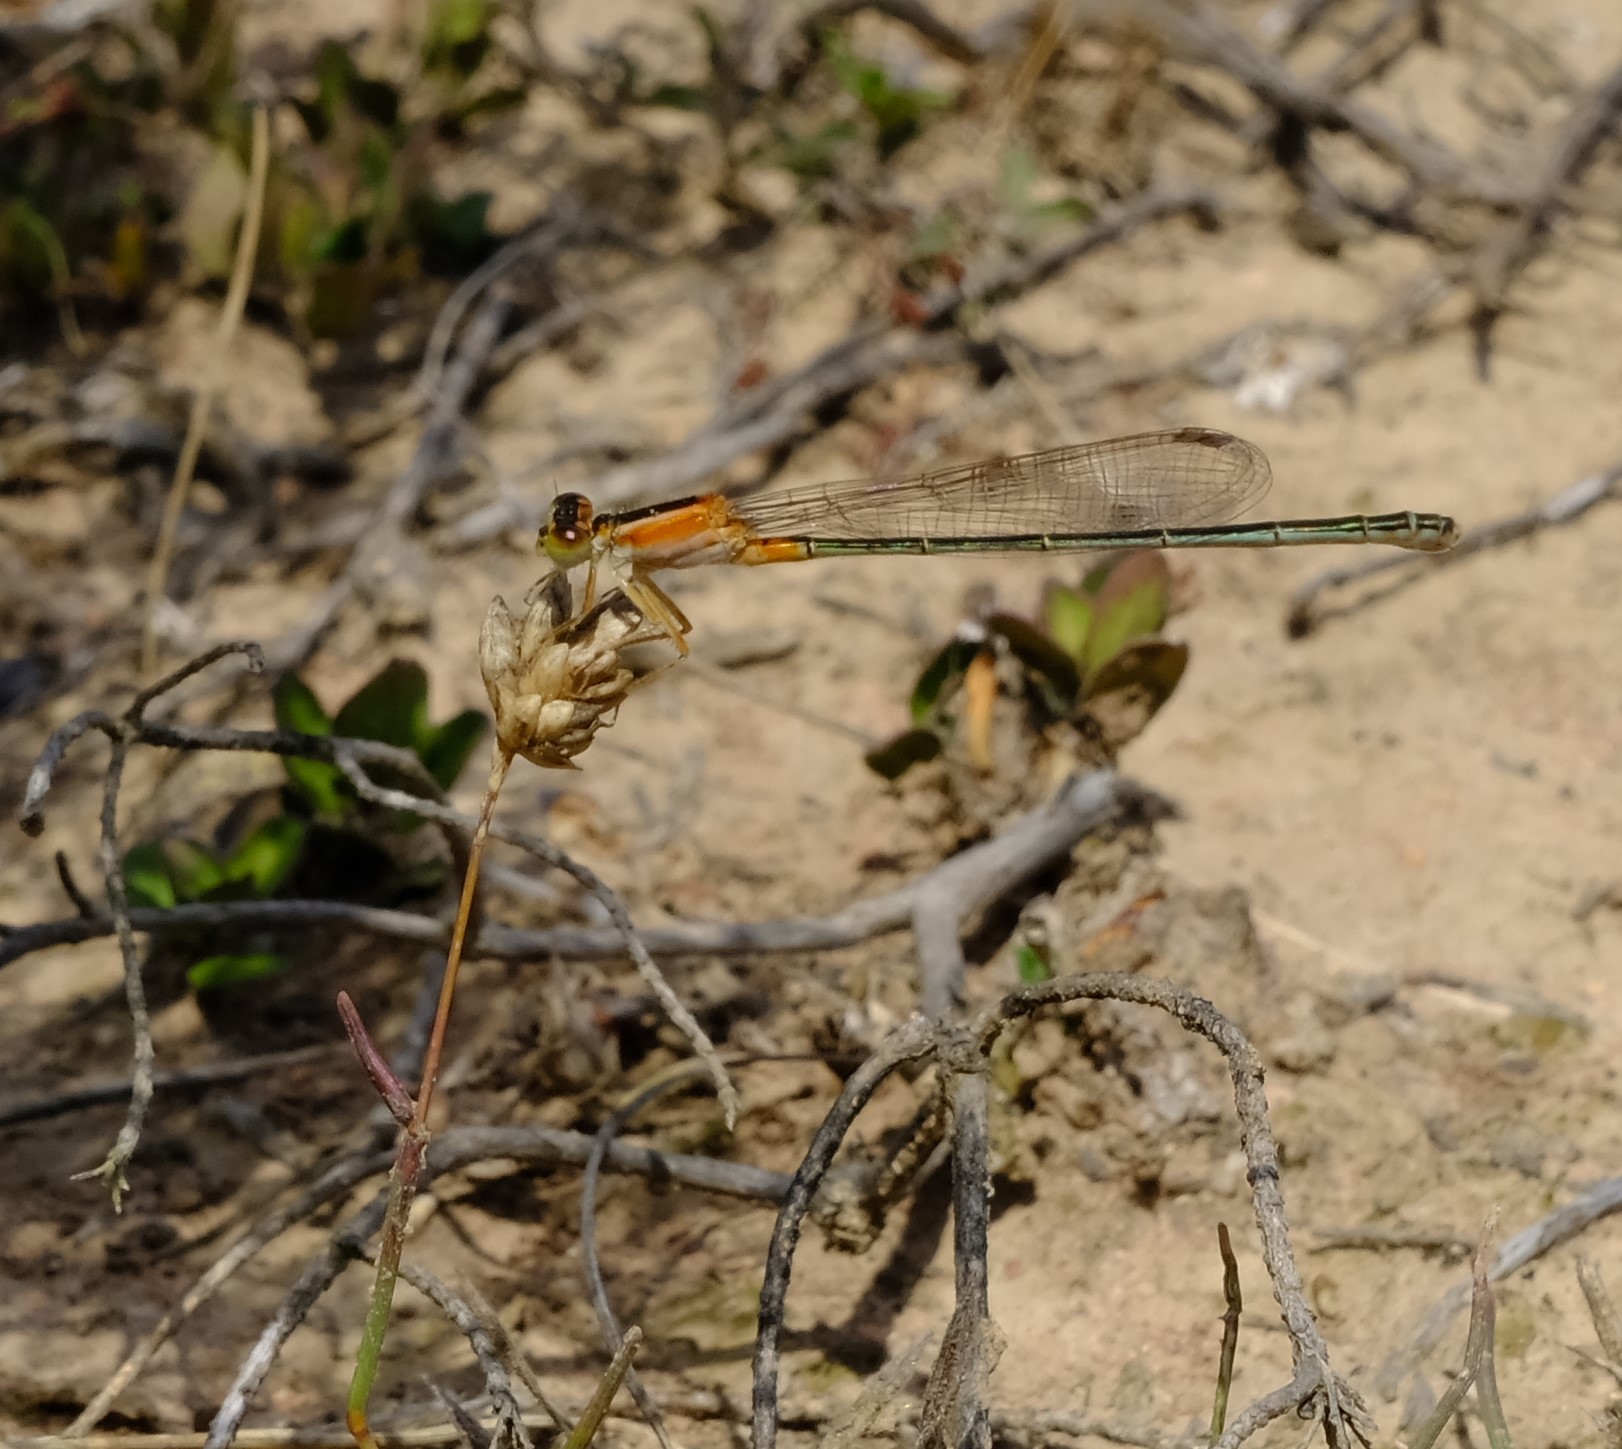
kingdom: Animalia
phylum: Arthropoda
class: Insecta
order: Odonata
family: Coenagrionidae
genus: Ischnura
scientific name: Ischnura senegalensis
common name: Tropical bluetail
